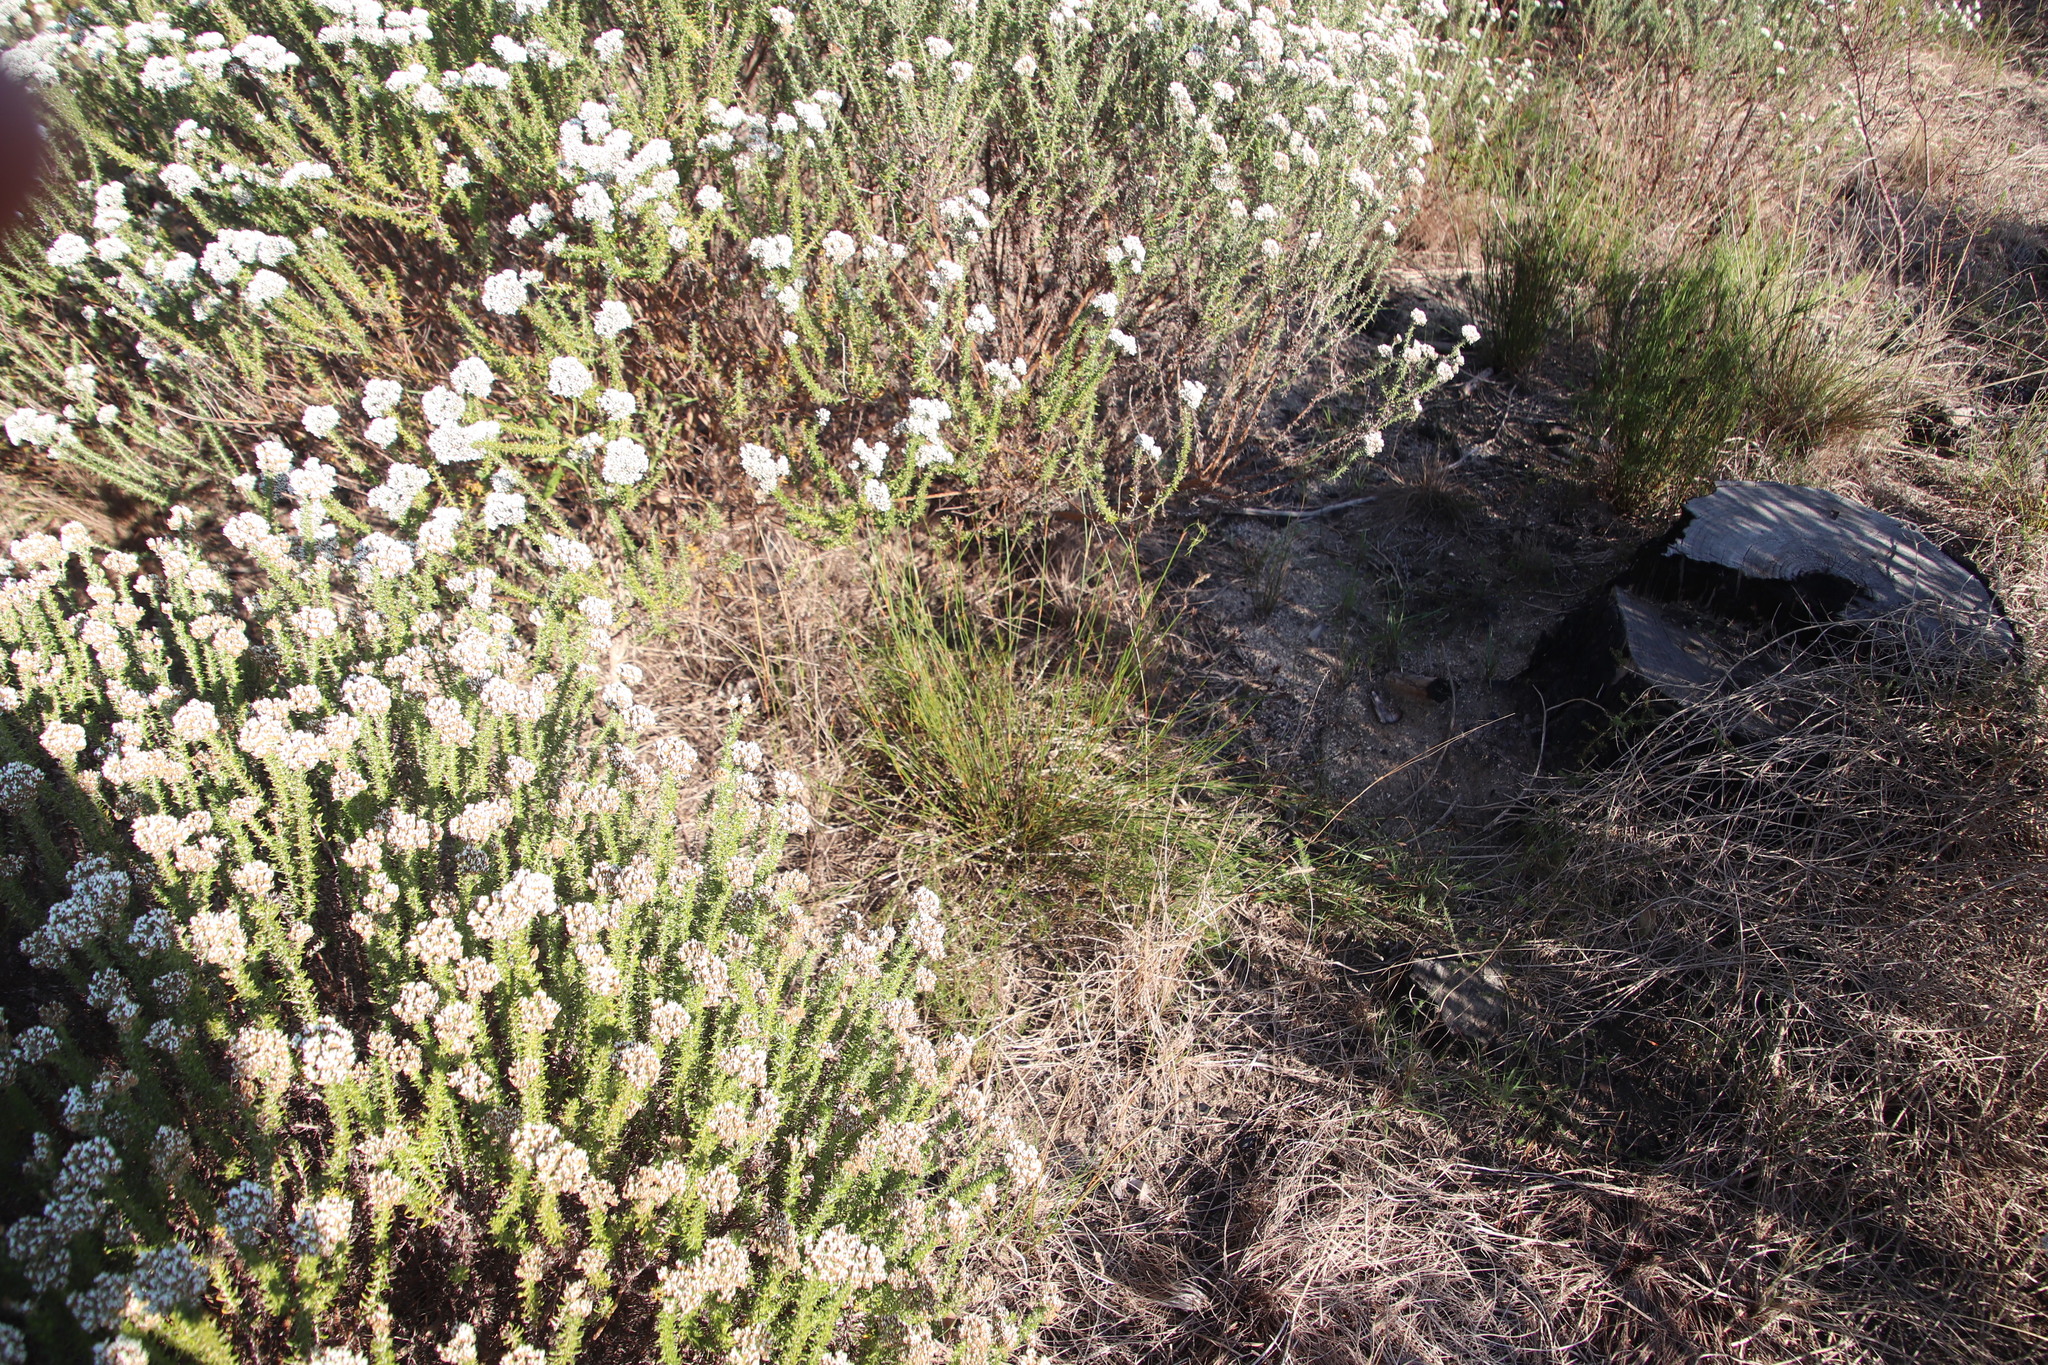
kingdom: Plantae
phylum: Tracheophyta
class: Liliopsida
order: Poales
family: Restionaceae
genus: Restio
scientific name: Restio capensis
